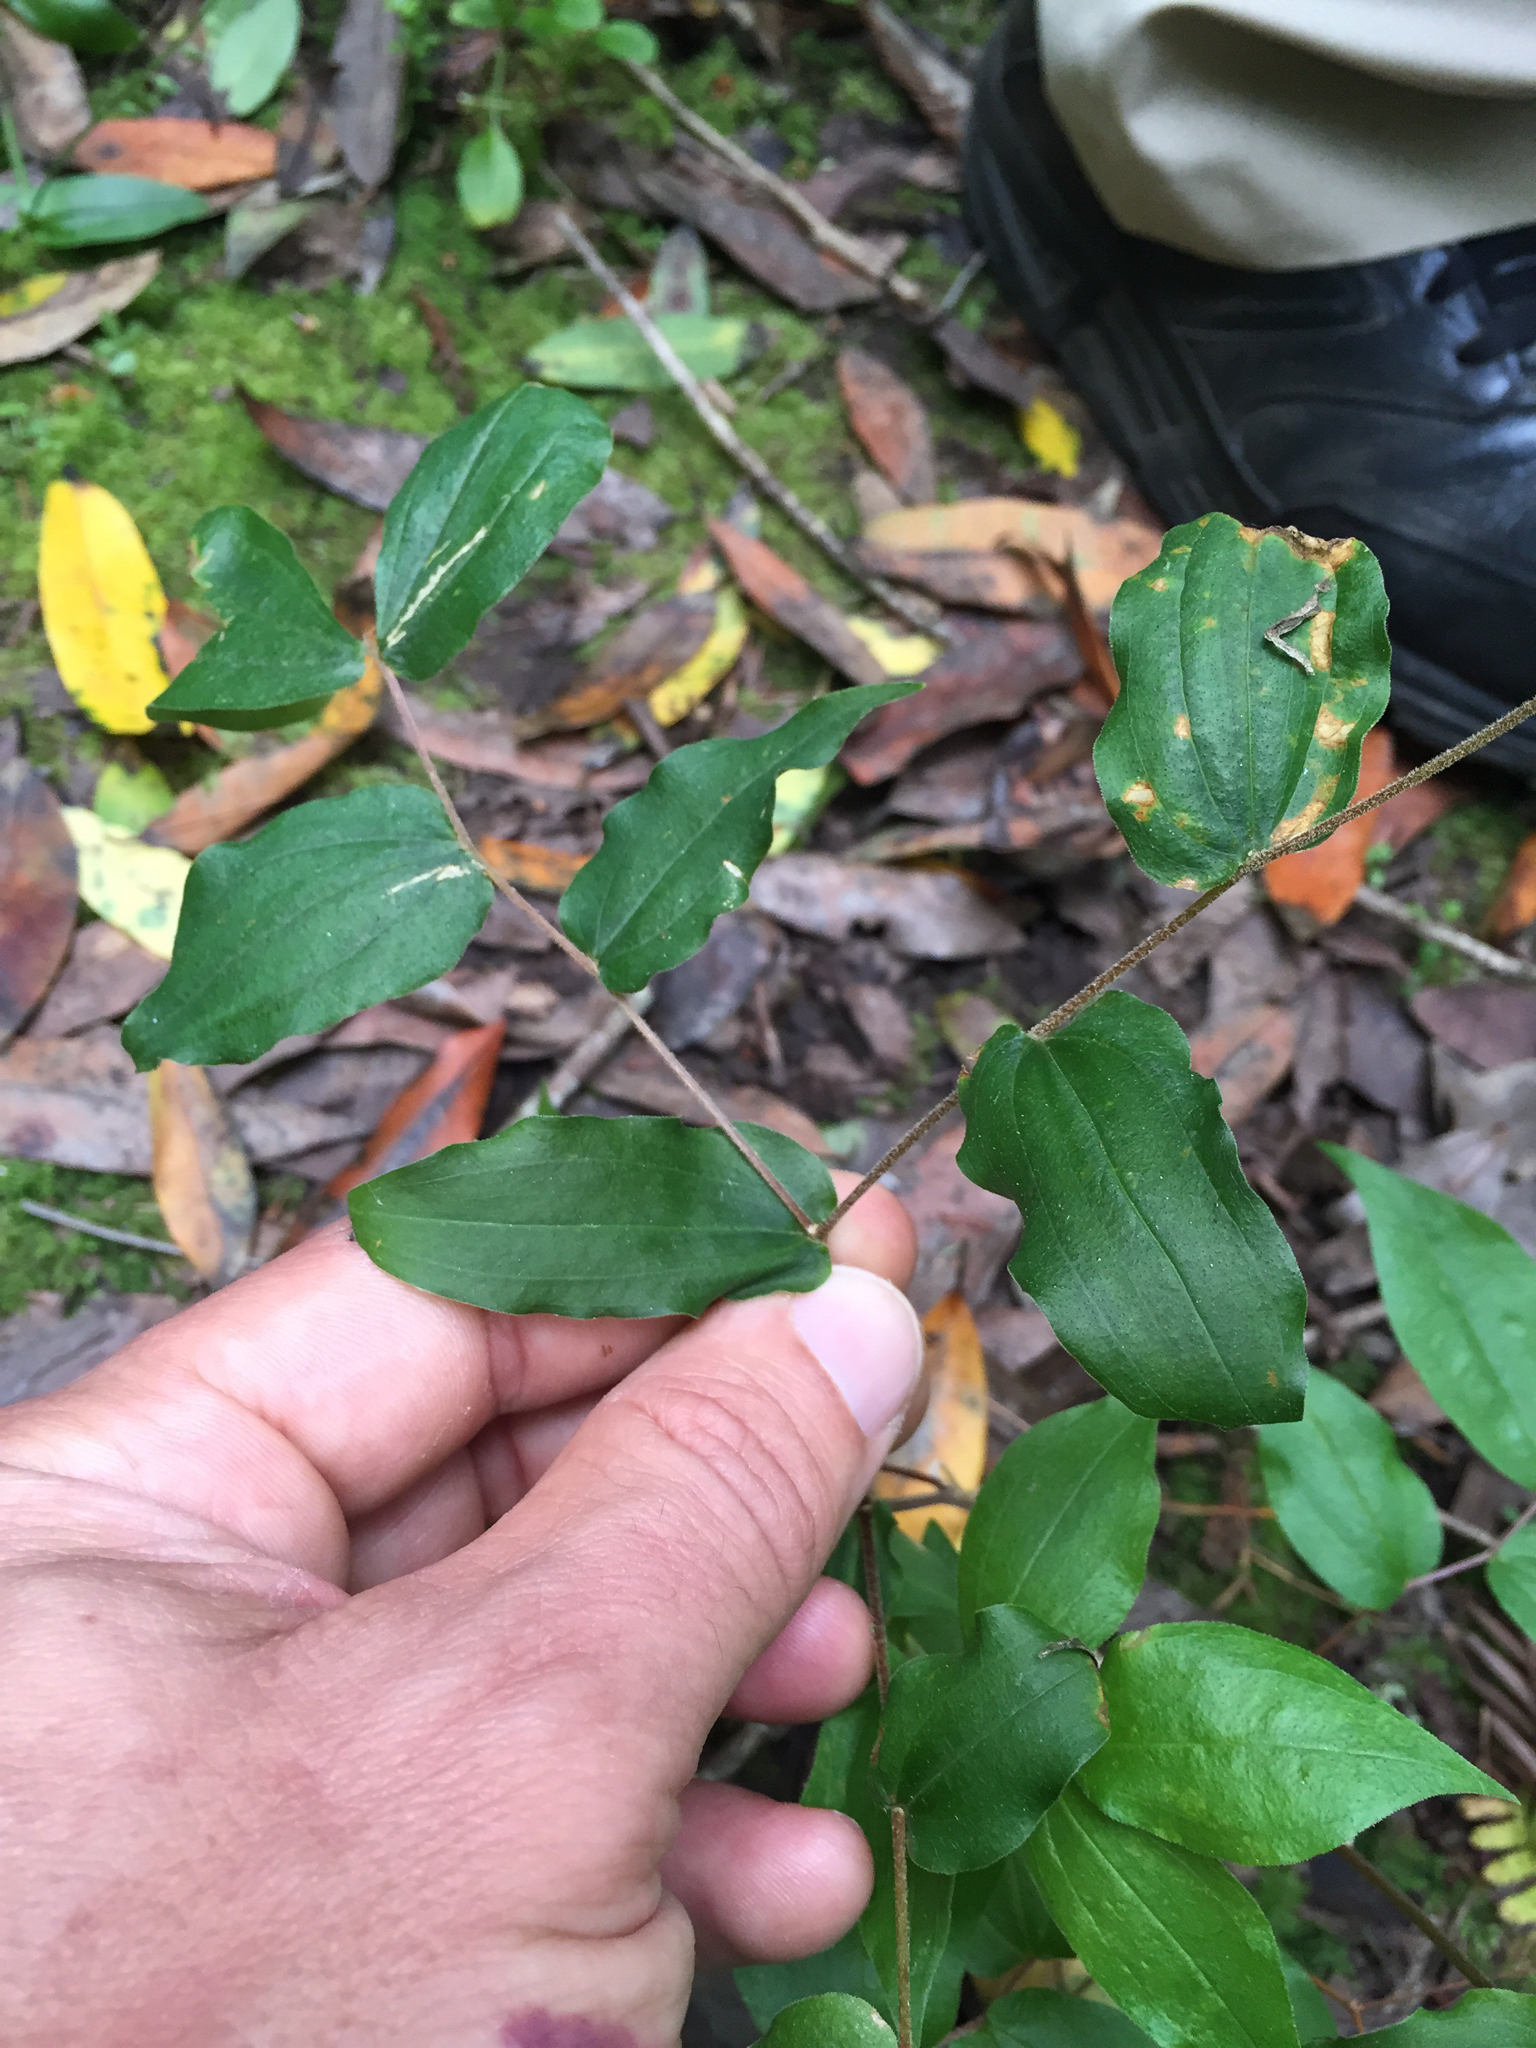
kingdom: Plantae
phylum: Tracheophyta
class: Liliopsida
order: Liliales
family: Liliaceae
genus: Prosartes
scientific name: Prosartes hookeri
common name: Fairy-bells
